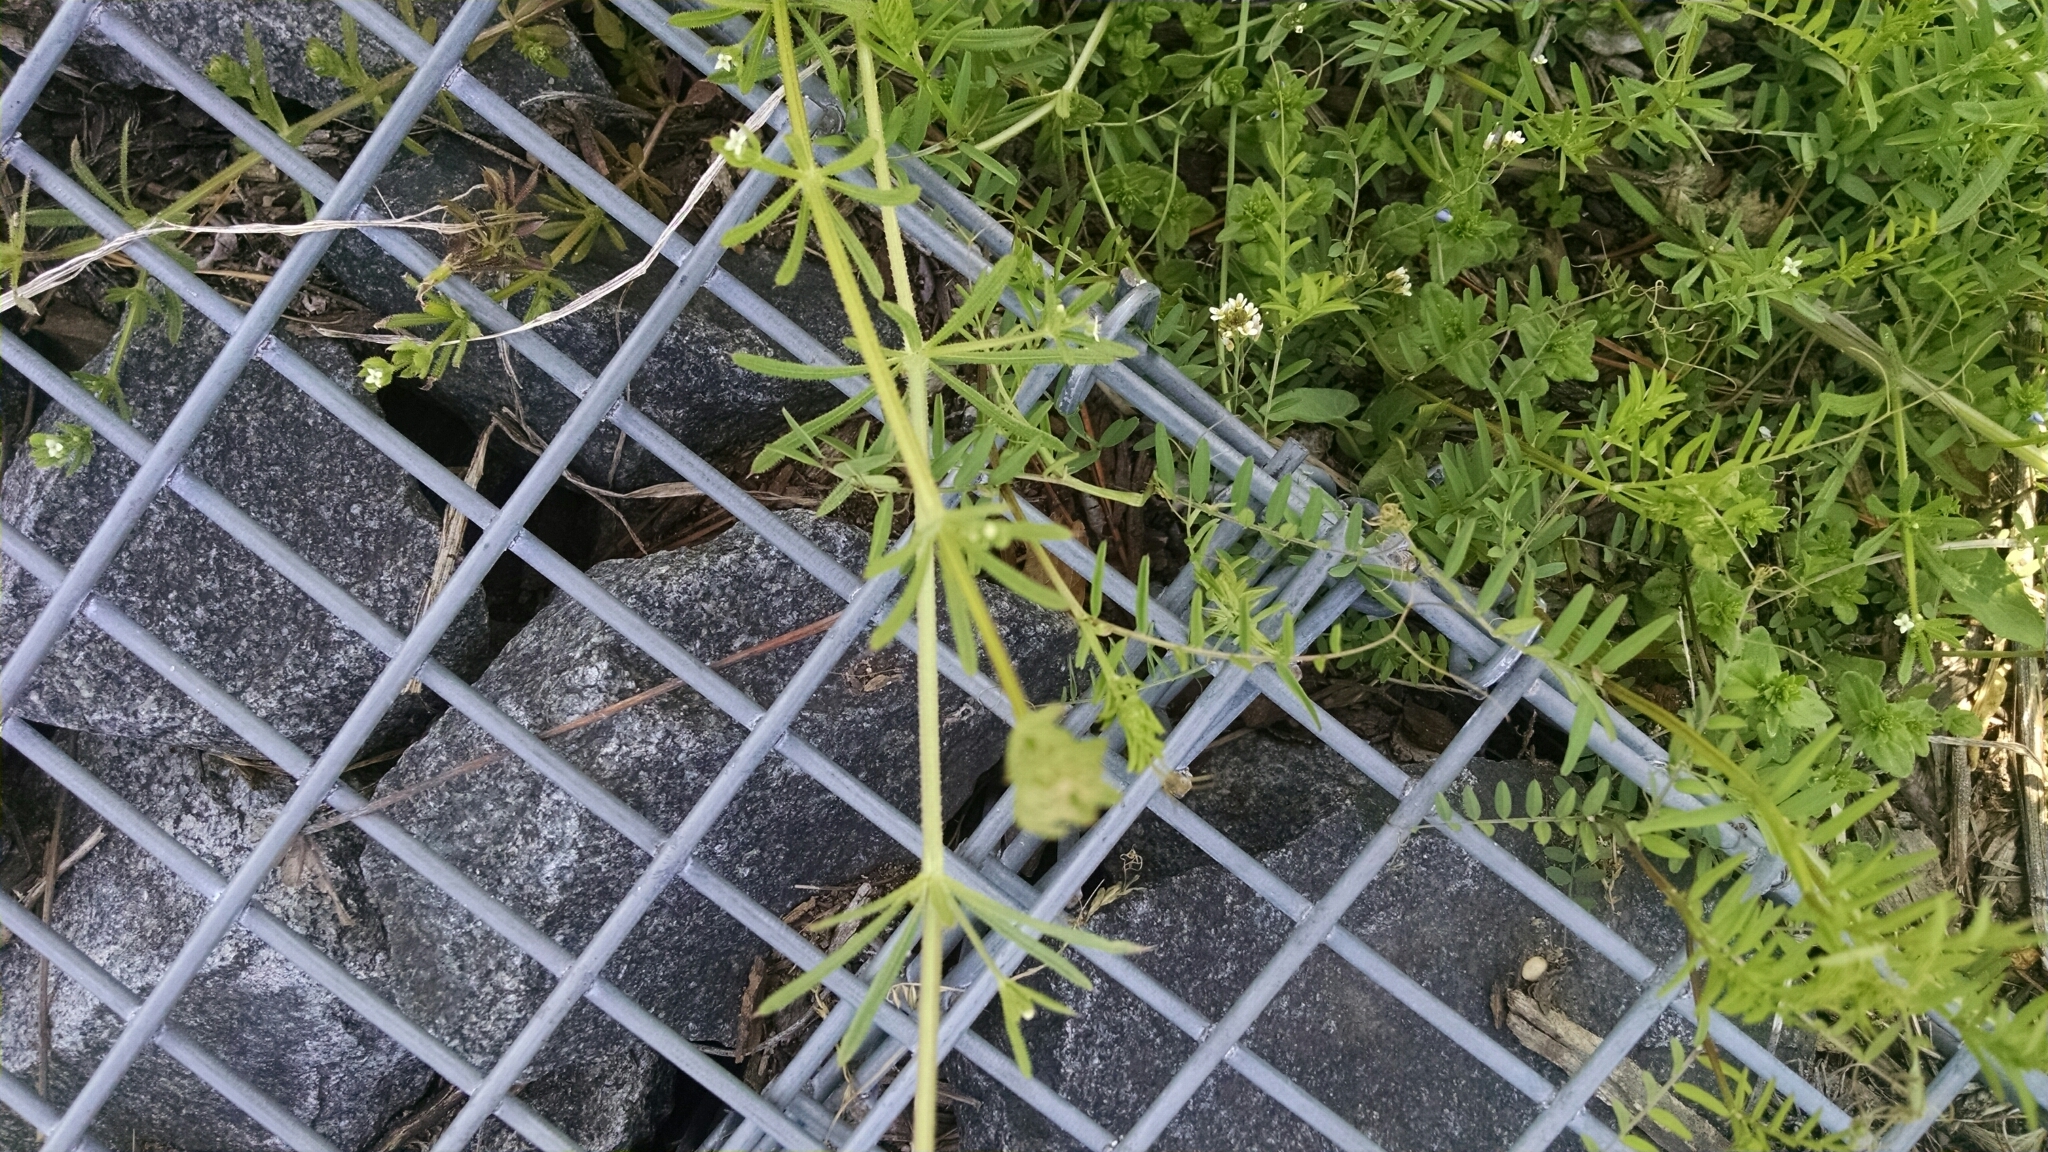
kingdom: Plantae
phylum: Tracheophyta
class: Magnoliopsida
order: Gentianales
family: Rubiaceae
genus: Galium
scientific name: Galium aparine
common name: Cleavers
